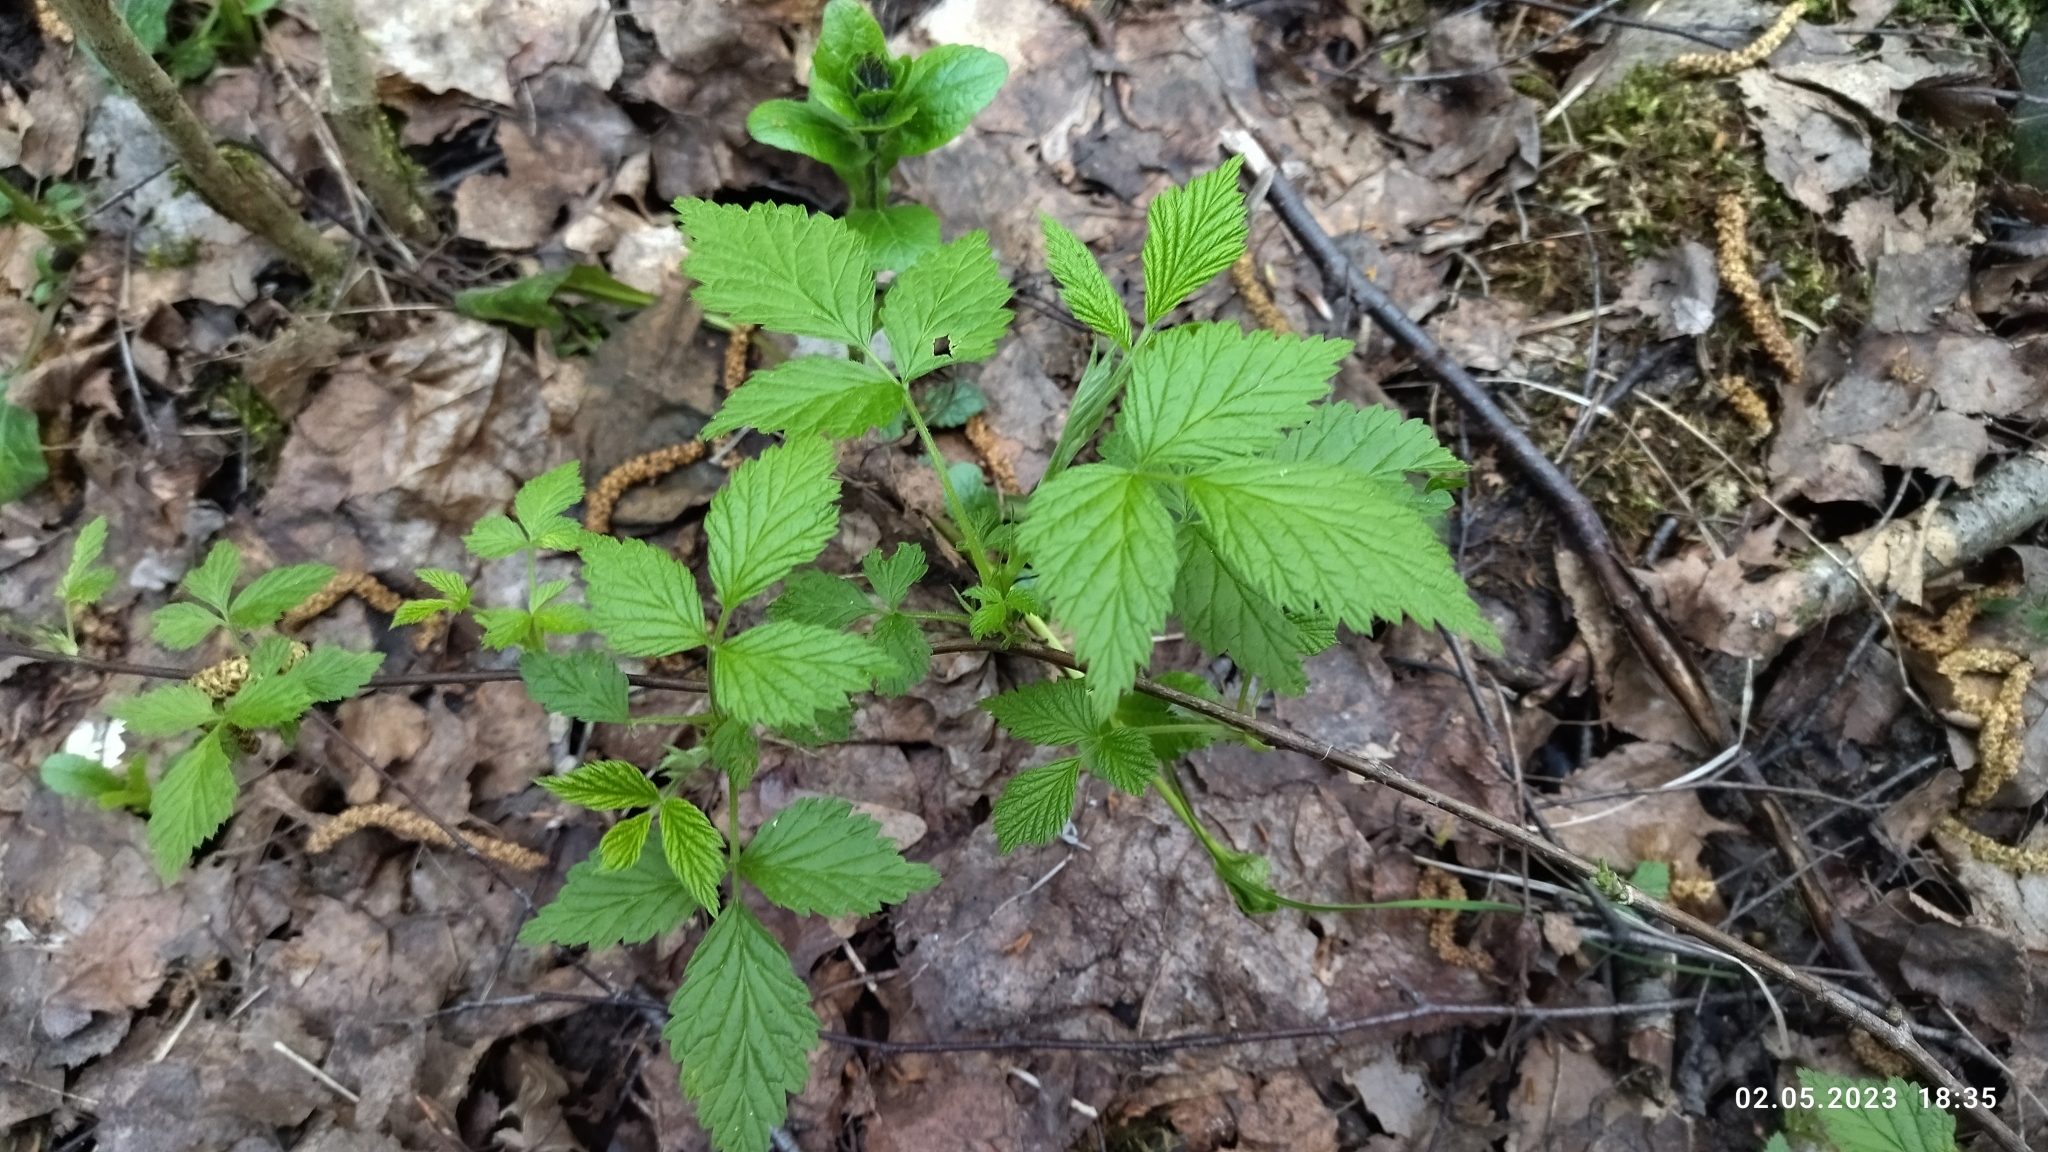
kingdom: Plantae
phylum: Tracheophyta
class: Magnoliopsida
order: Rosales
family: Rosaceae
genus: Rubus
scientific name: Rubus idaeus
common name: Raspberry
